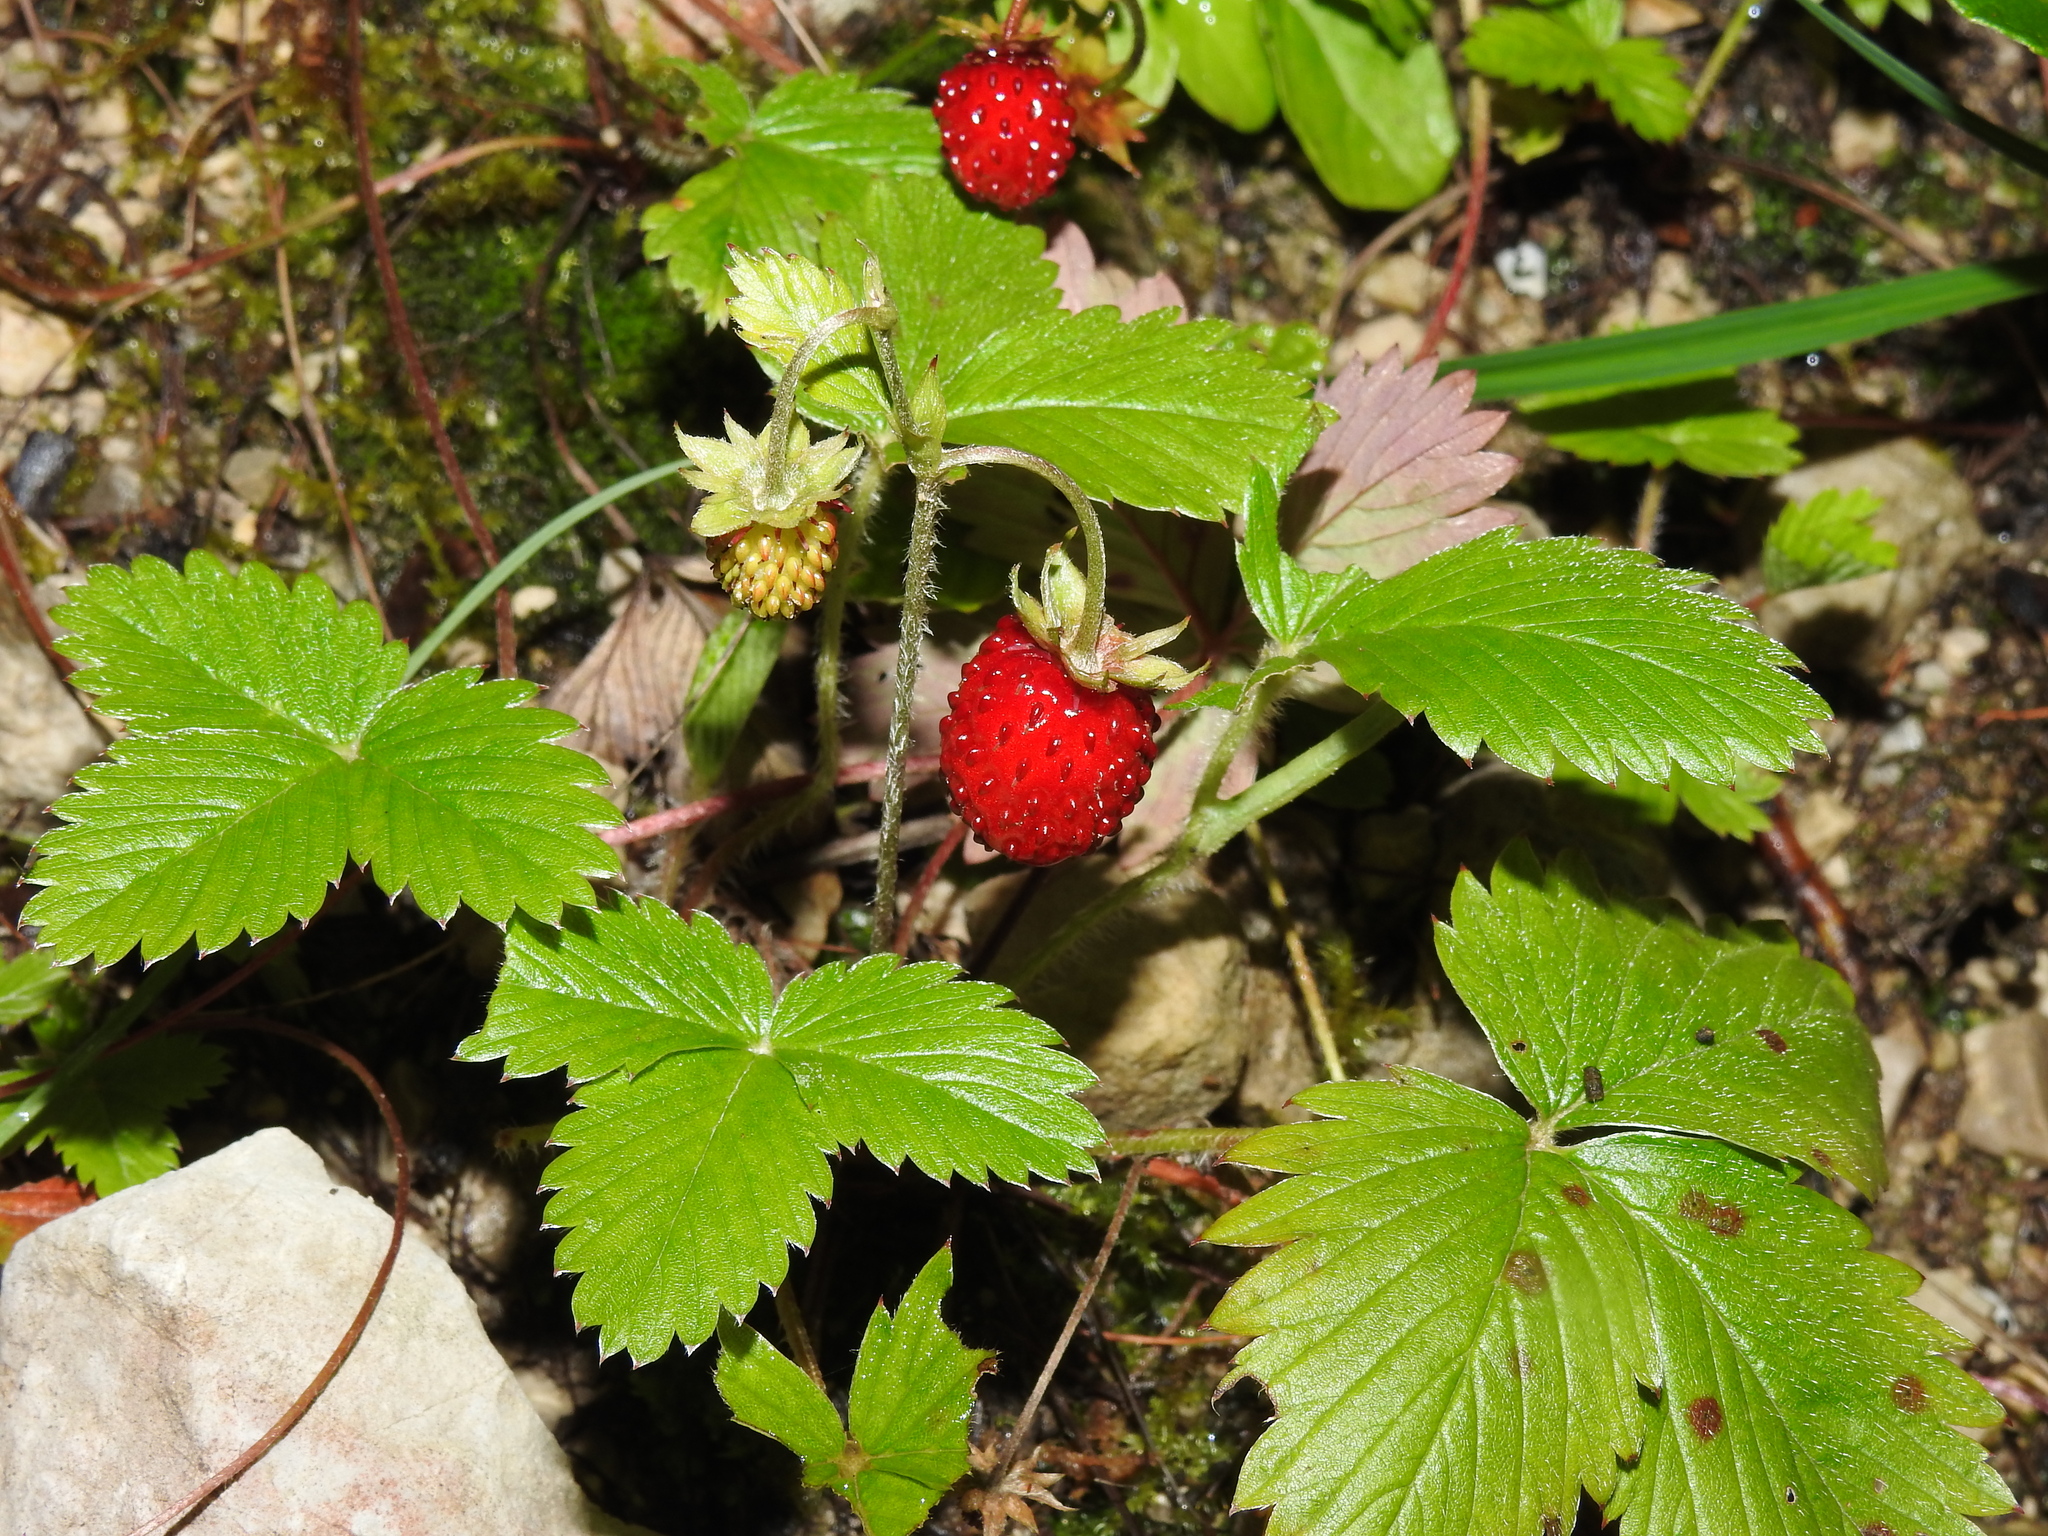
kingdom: Plantae
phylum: Tracheophyta
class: Magnoliopsida
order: Rosales
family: Rosaceae
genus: Fragaria
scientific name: Fragaria vesca
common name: Wild strawberry
